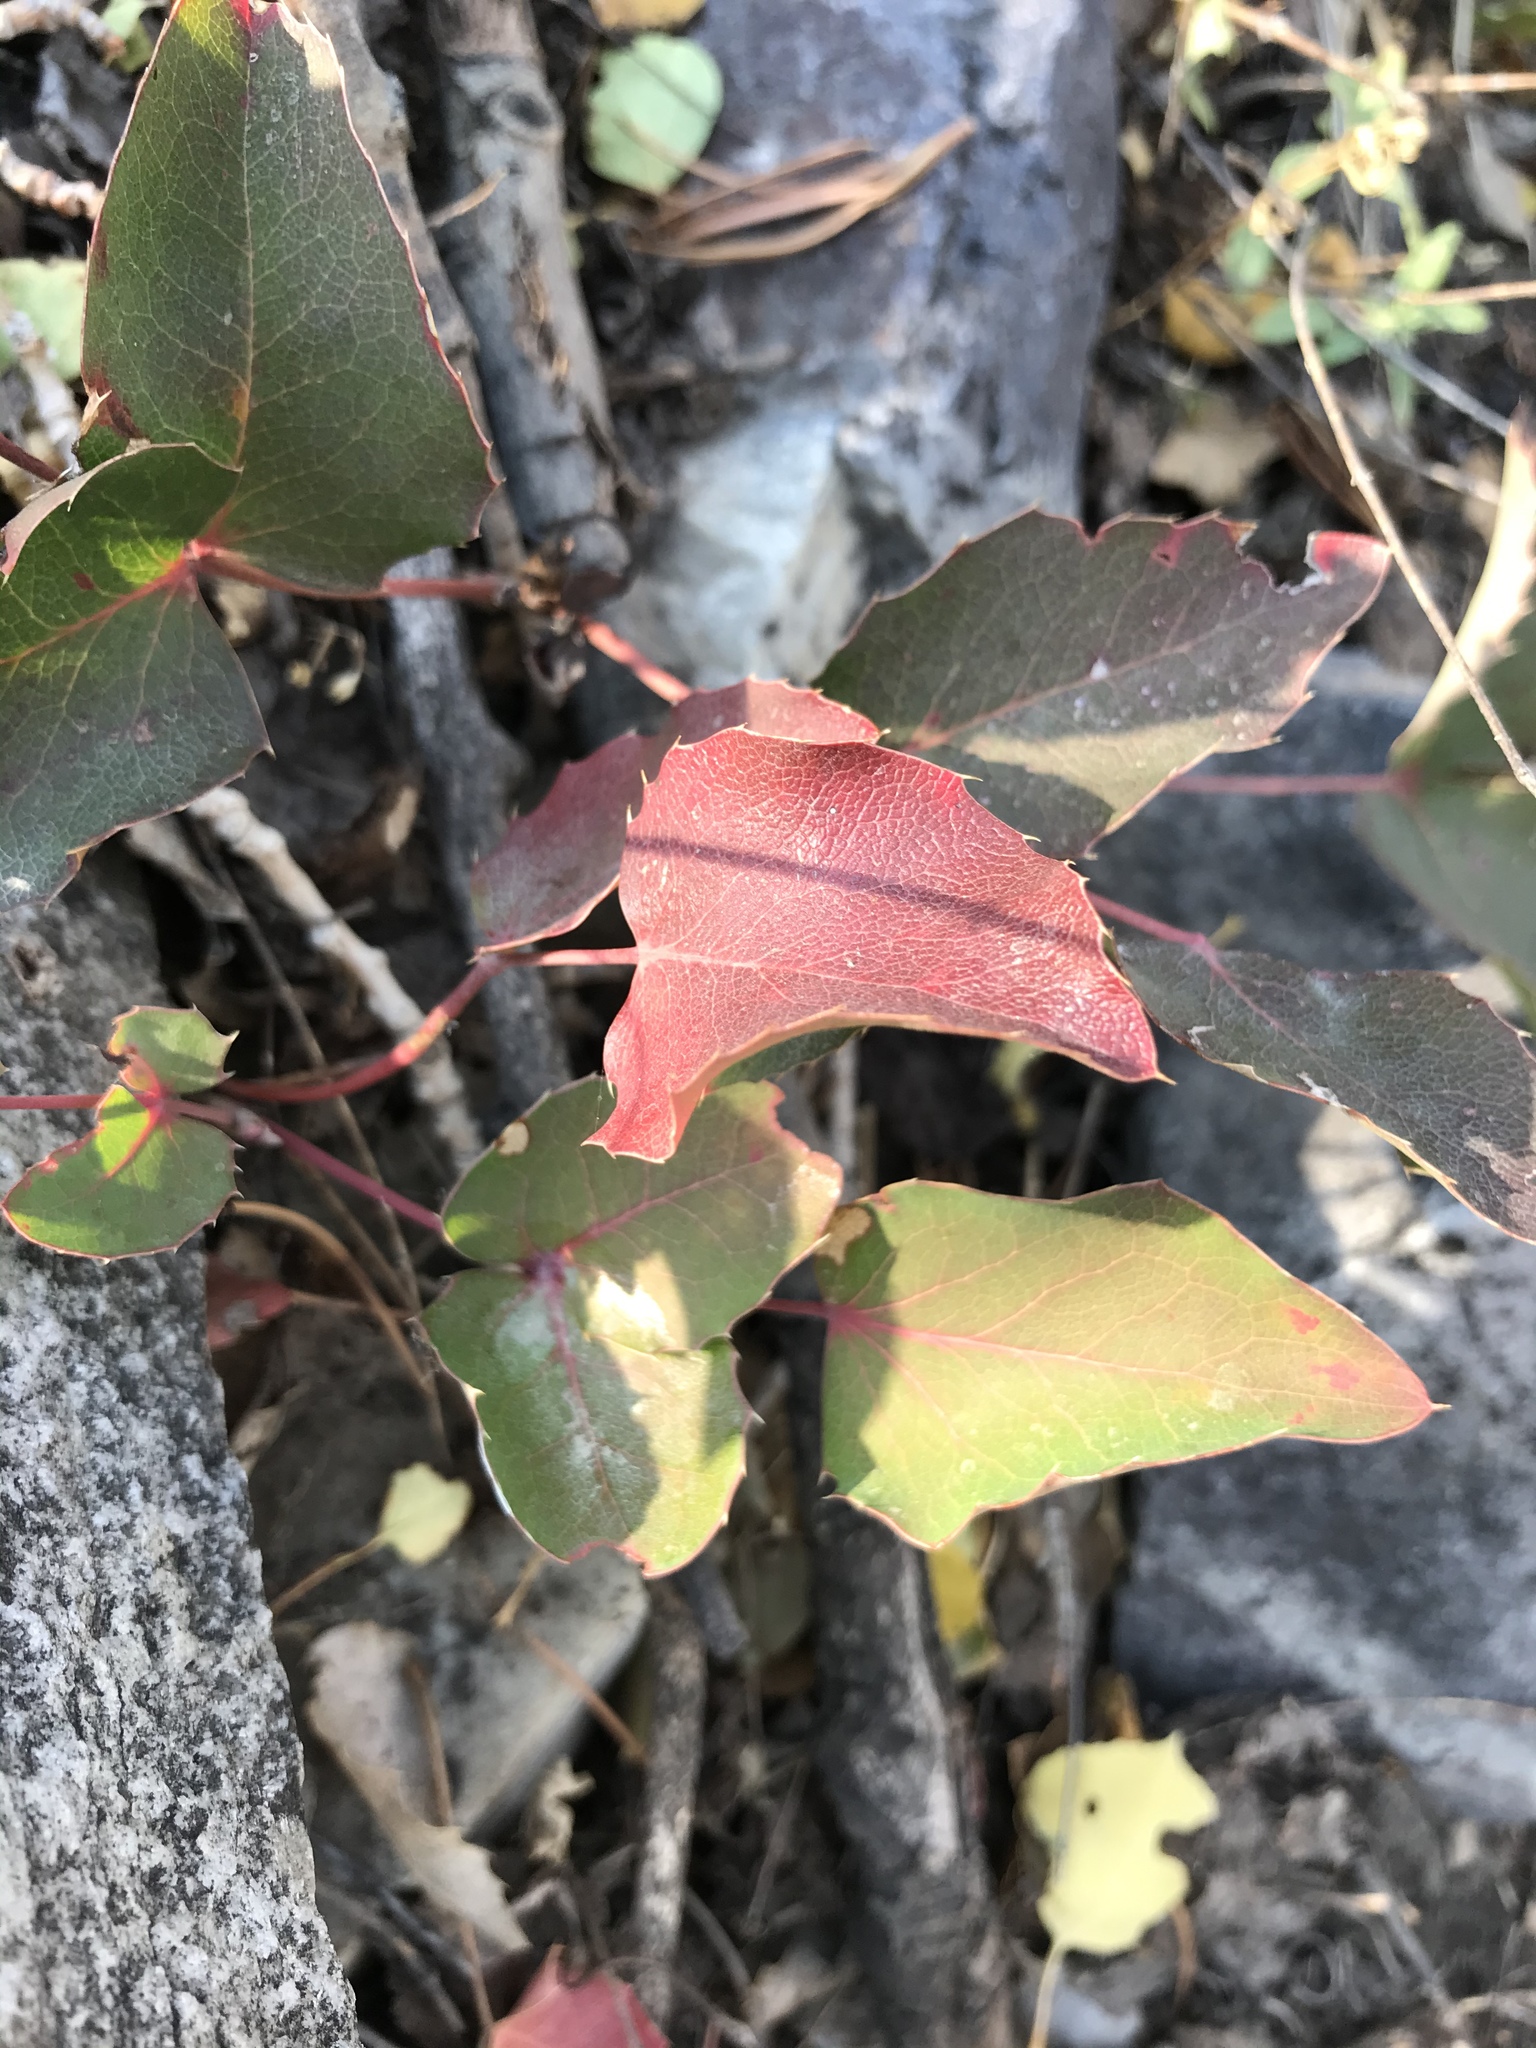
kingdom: Plantae
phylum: Tracheophyta
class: Magnoliopsida
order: Ranunculales
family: Berberidaceae
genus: Mahonia
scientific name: Mahonia repens
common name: Creeping oregon-grape
